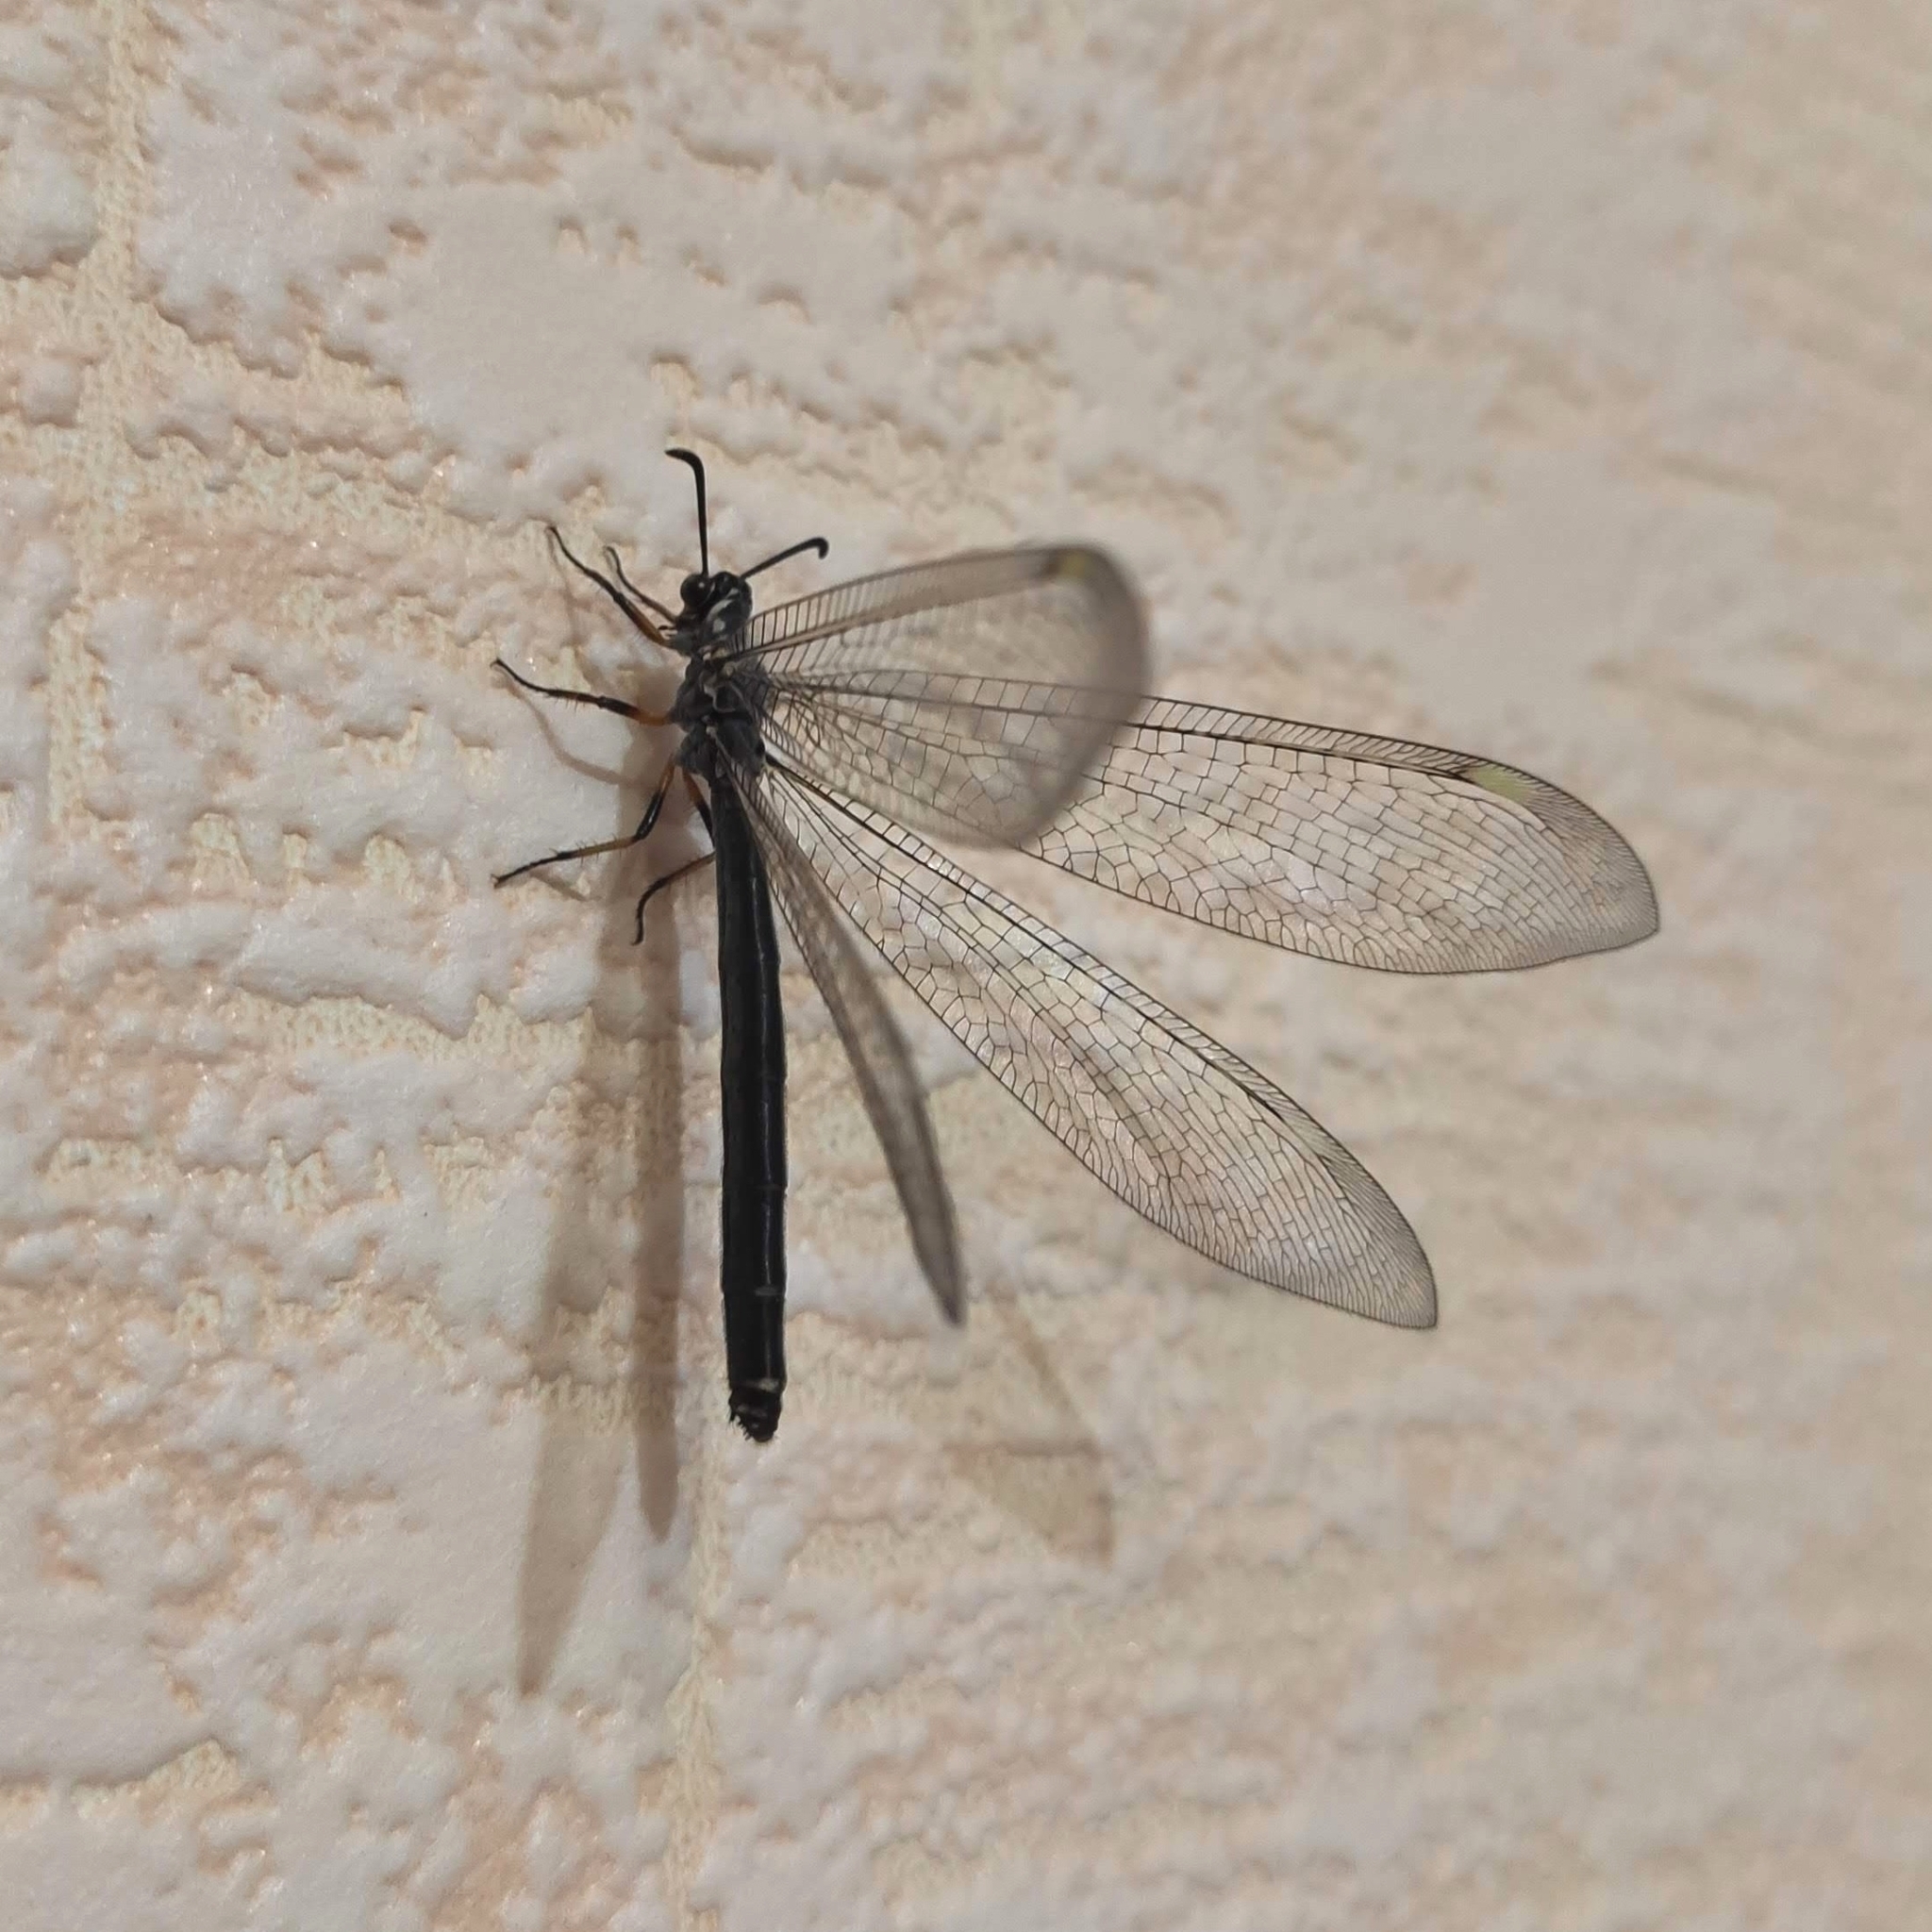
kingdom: Animalia
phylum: Arthropoda
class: Insecta
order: Neuroptera
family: Myrmeleontidae
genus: Myrmeleon
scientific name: Myrmeleon formicarius
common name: Ant-lion
